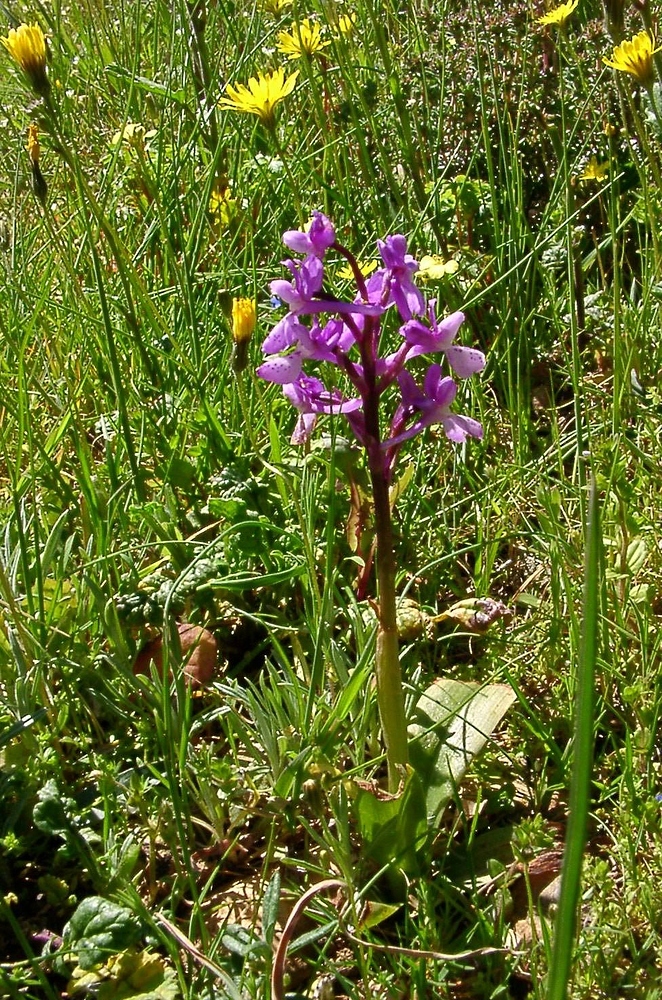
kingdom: Plantae
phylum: Tracheophyta
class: Liliopsida
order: Asparagales
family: Orchidaceae
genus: Orchis
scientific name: Orchis olbiensis
